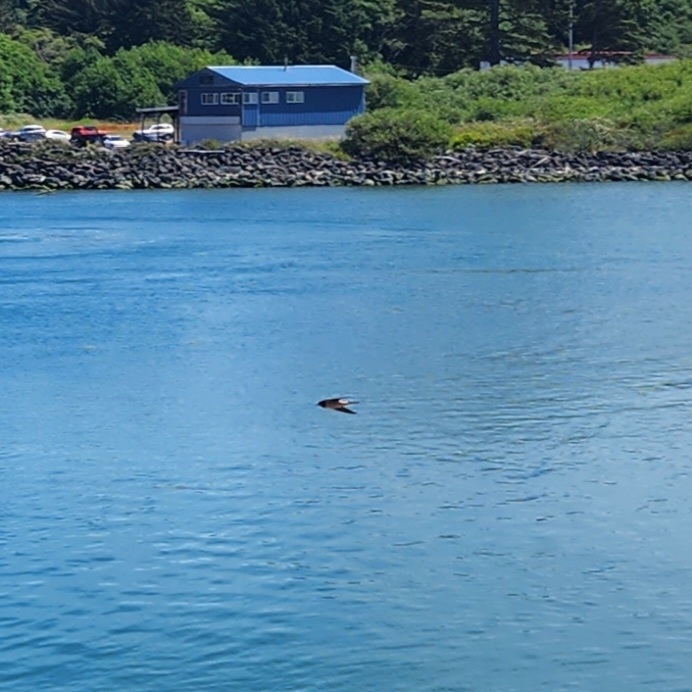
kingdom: Animalia
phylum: Chordata
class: Aves
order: Passeriformes
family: Hirundinidae
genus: Hirundo
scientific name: Hirundo rustica
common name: Barn swallow
